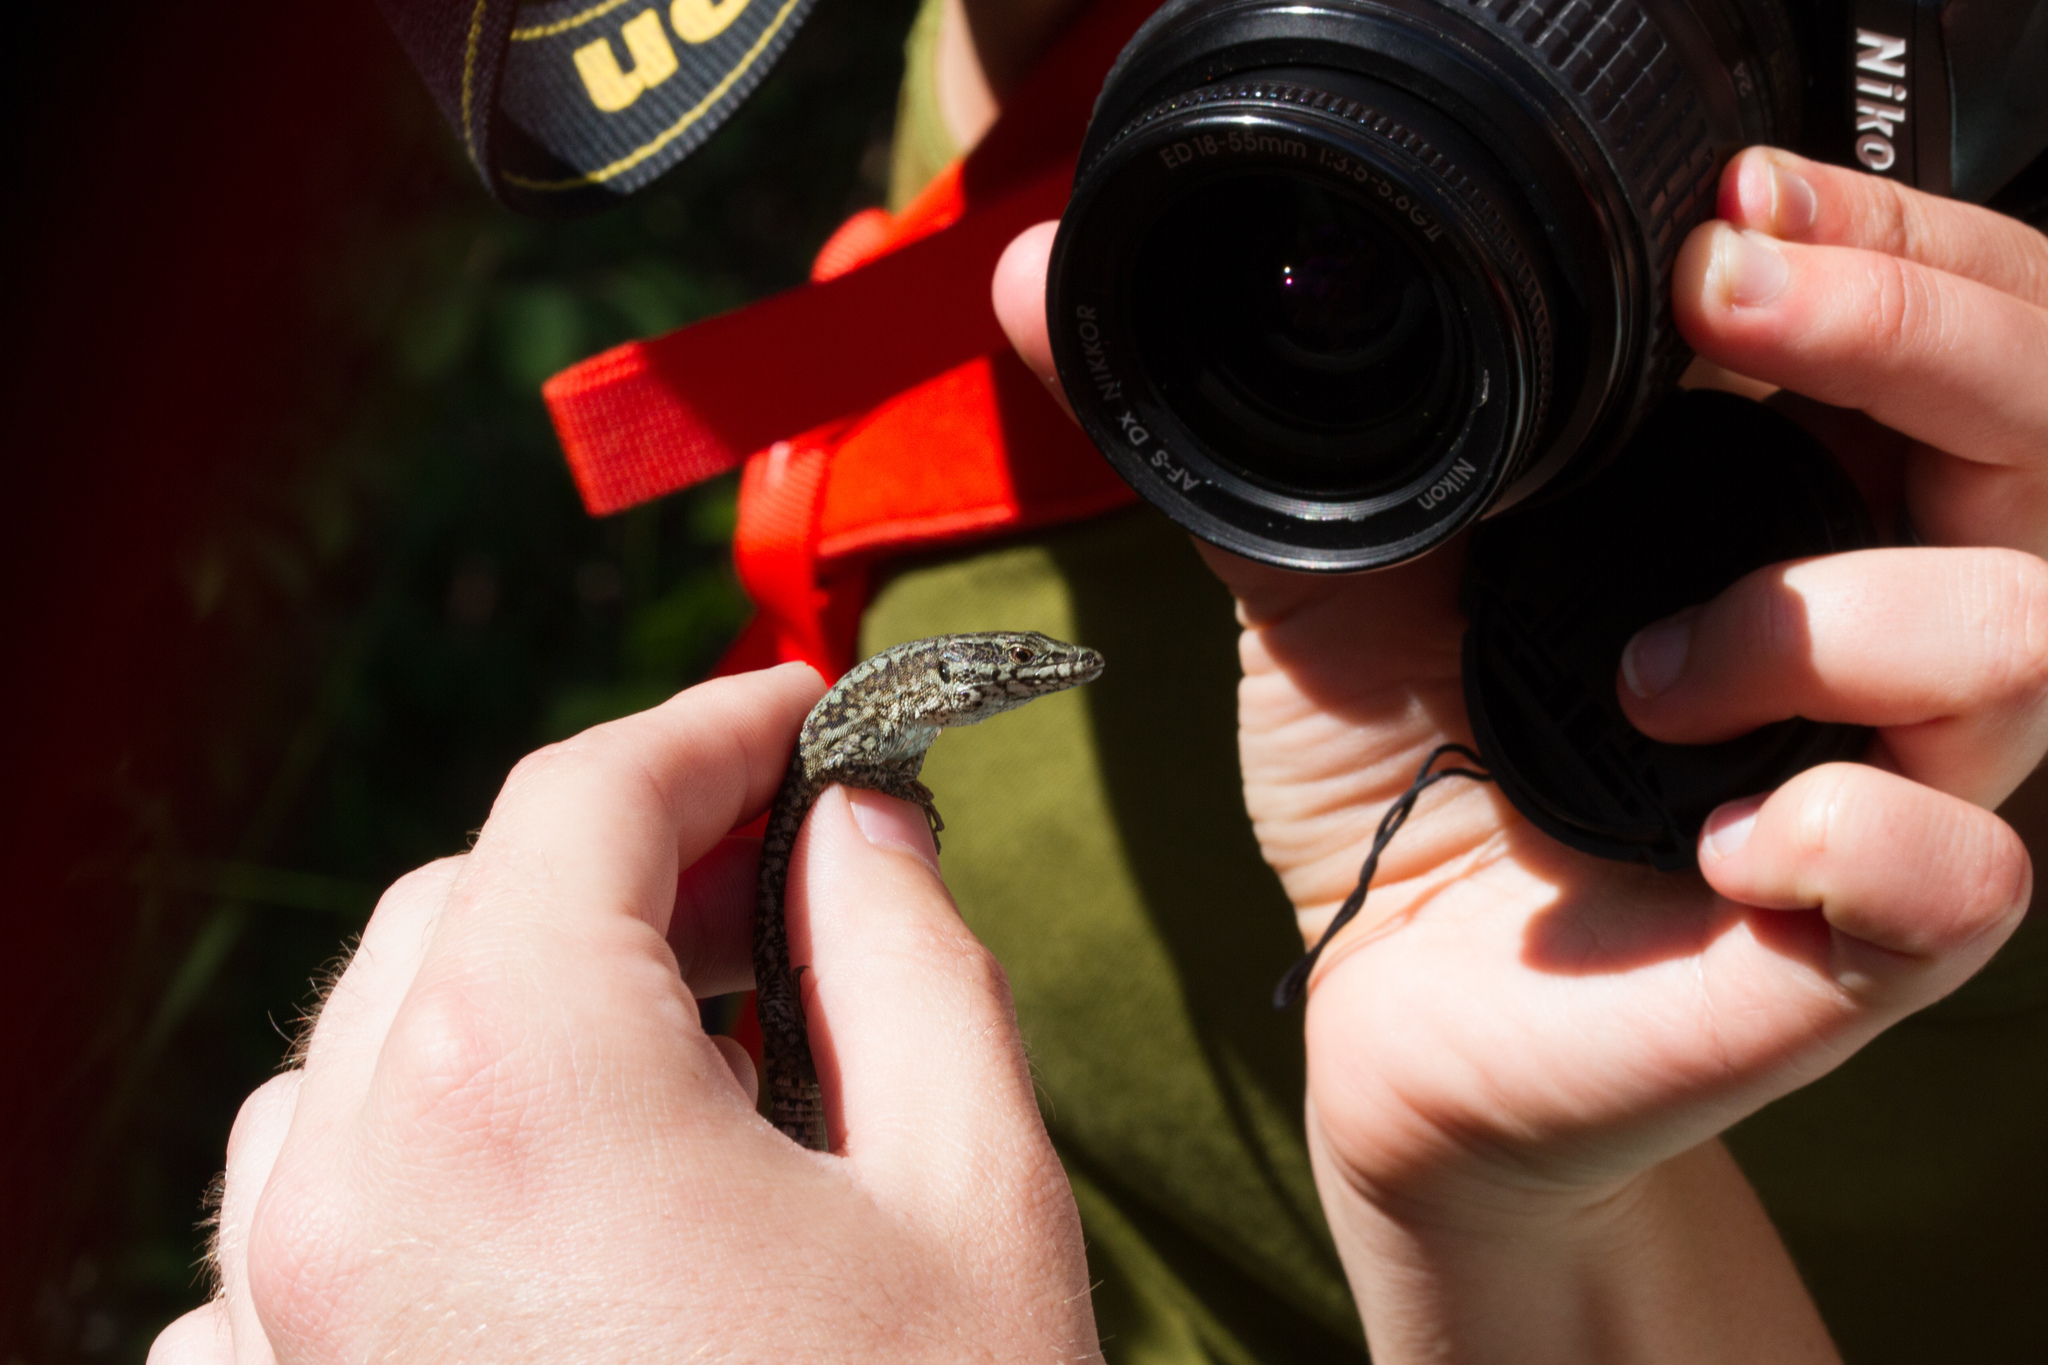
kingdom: Animalia
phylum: Chordata
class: Squamata
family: Lacertidae
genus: Podarcis
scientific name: Podarcis muralis
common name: Common wall lizard
